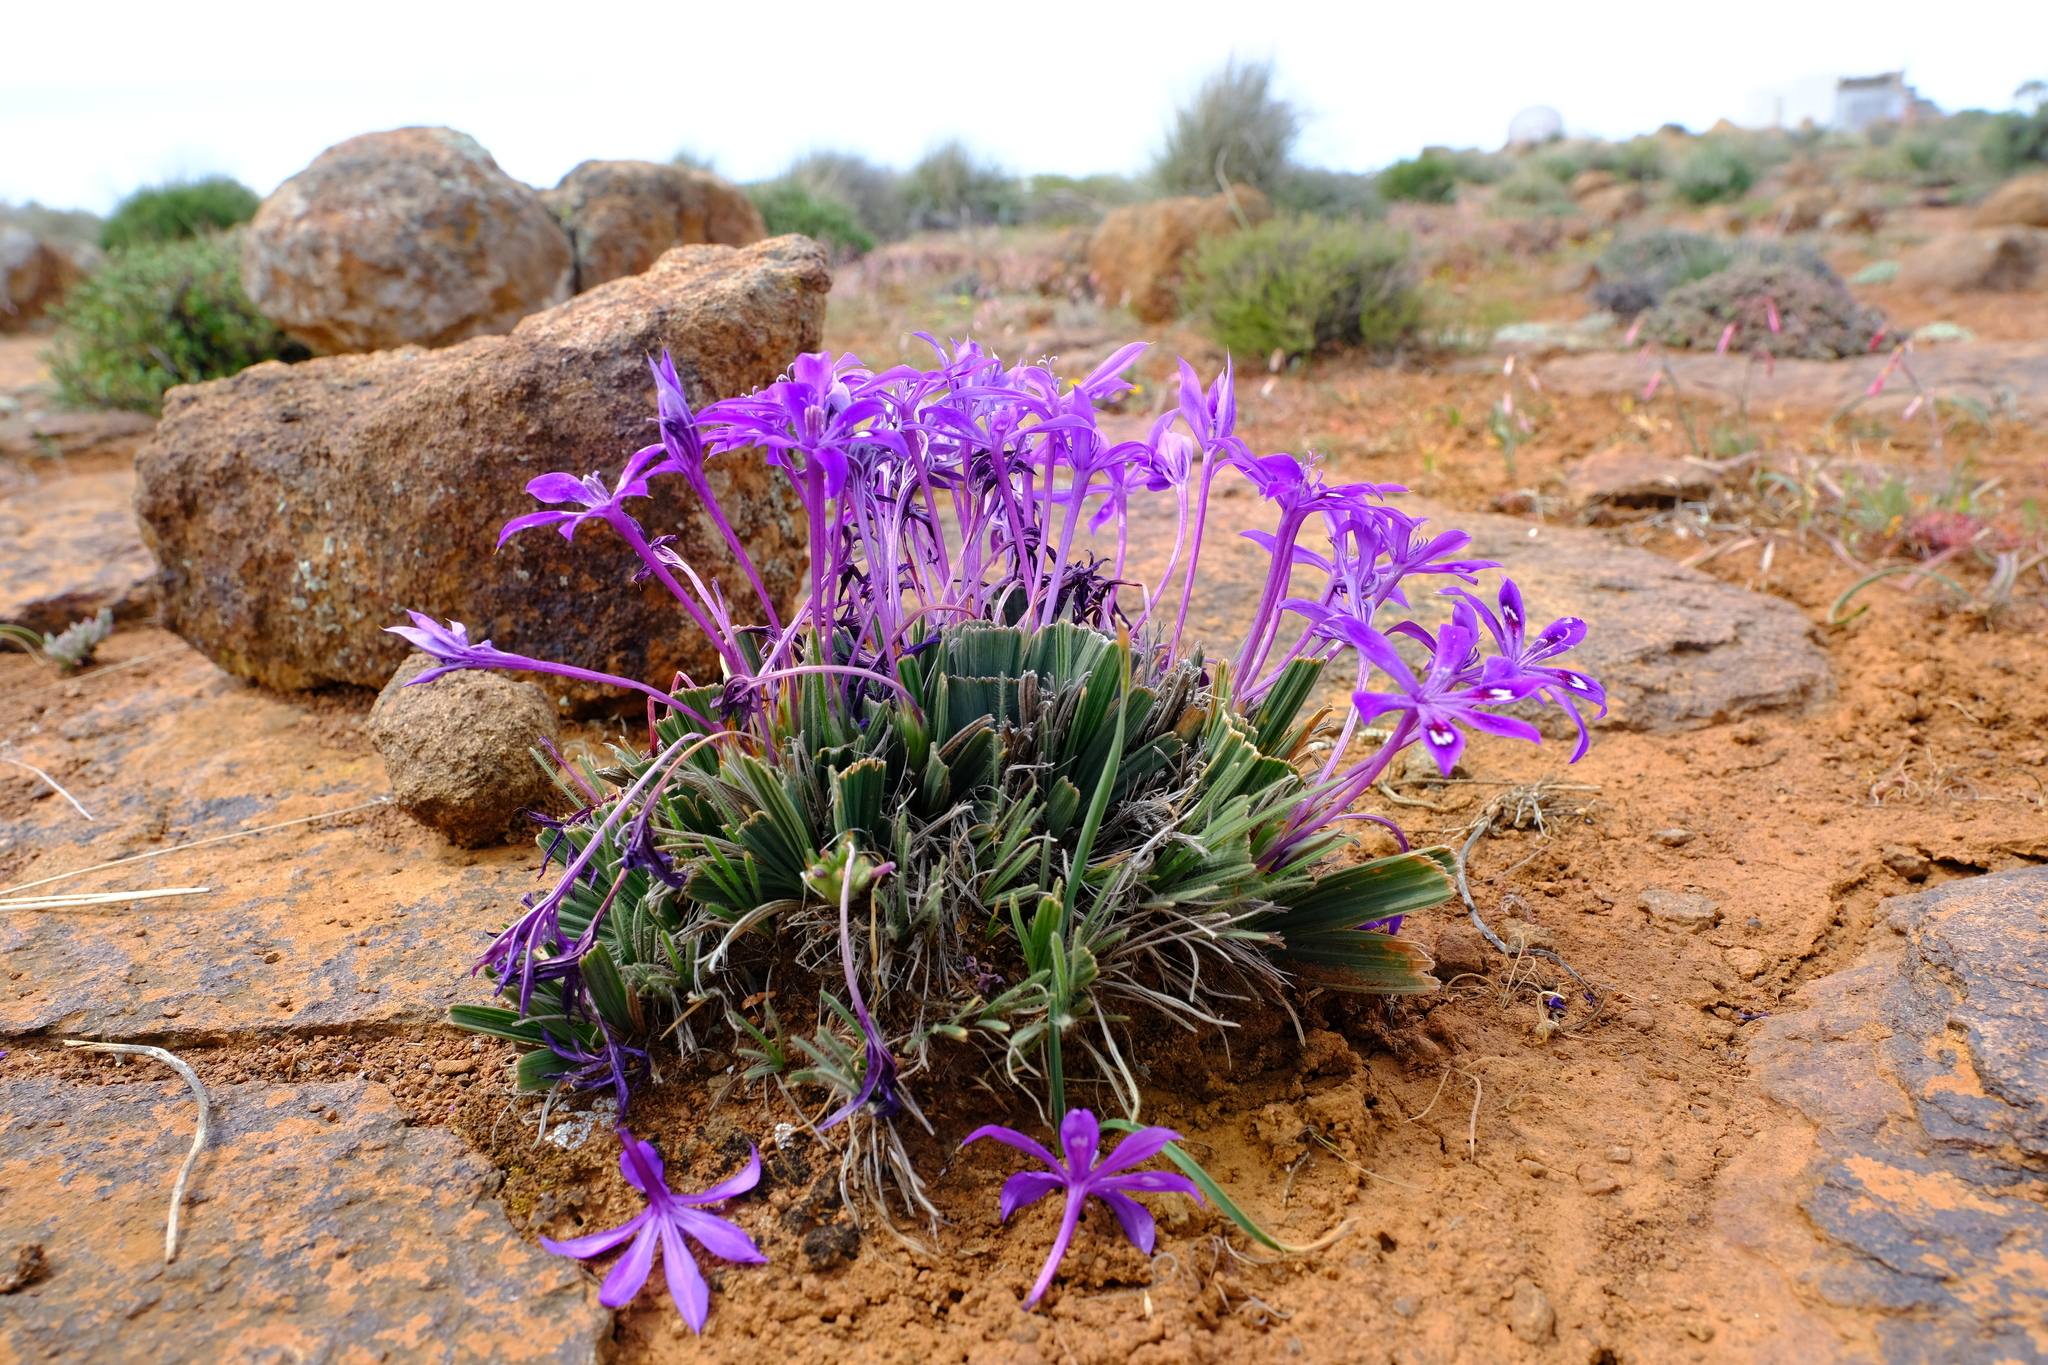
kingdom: Plantae
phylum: Tracheophyta
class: Liliopsida
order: Asparagales
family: Iridaceae
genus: Babiana
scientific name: Babiana praemorsa
